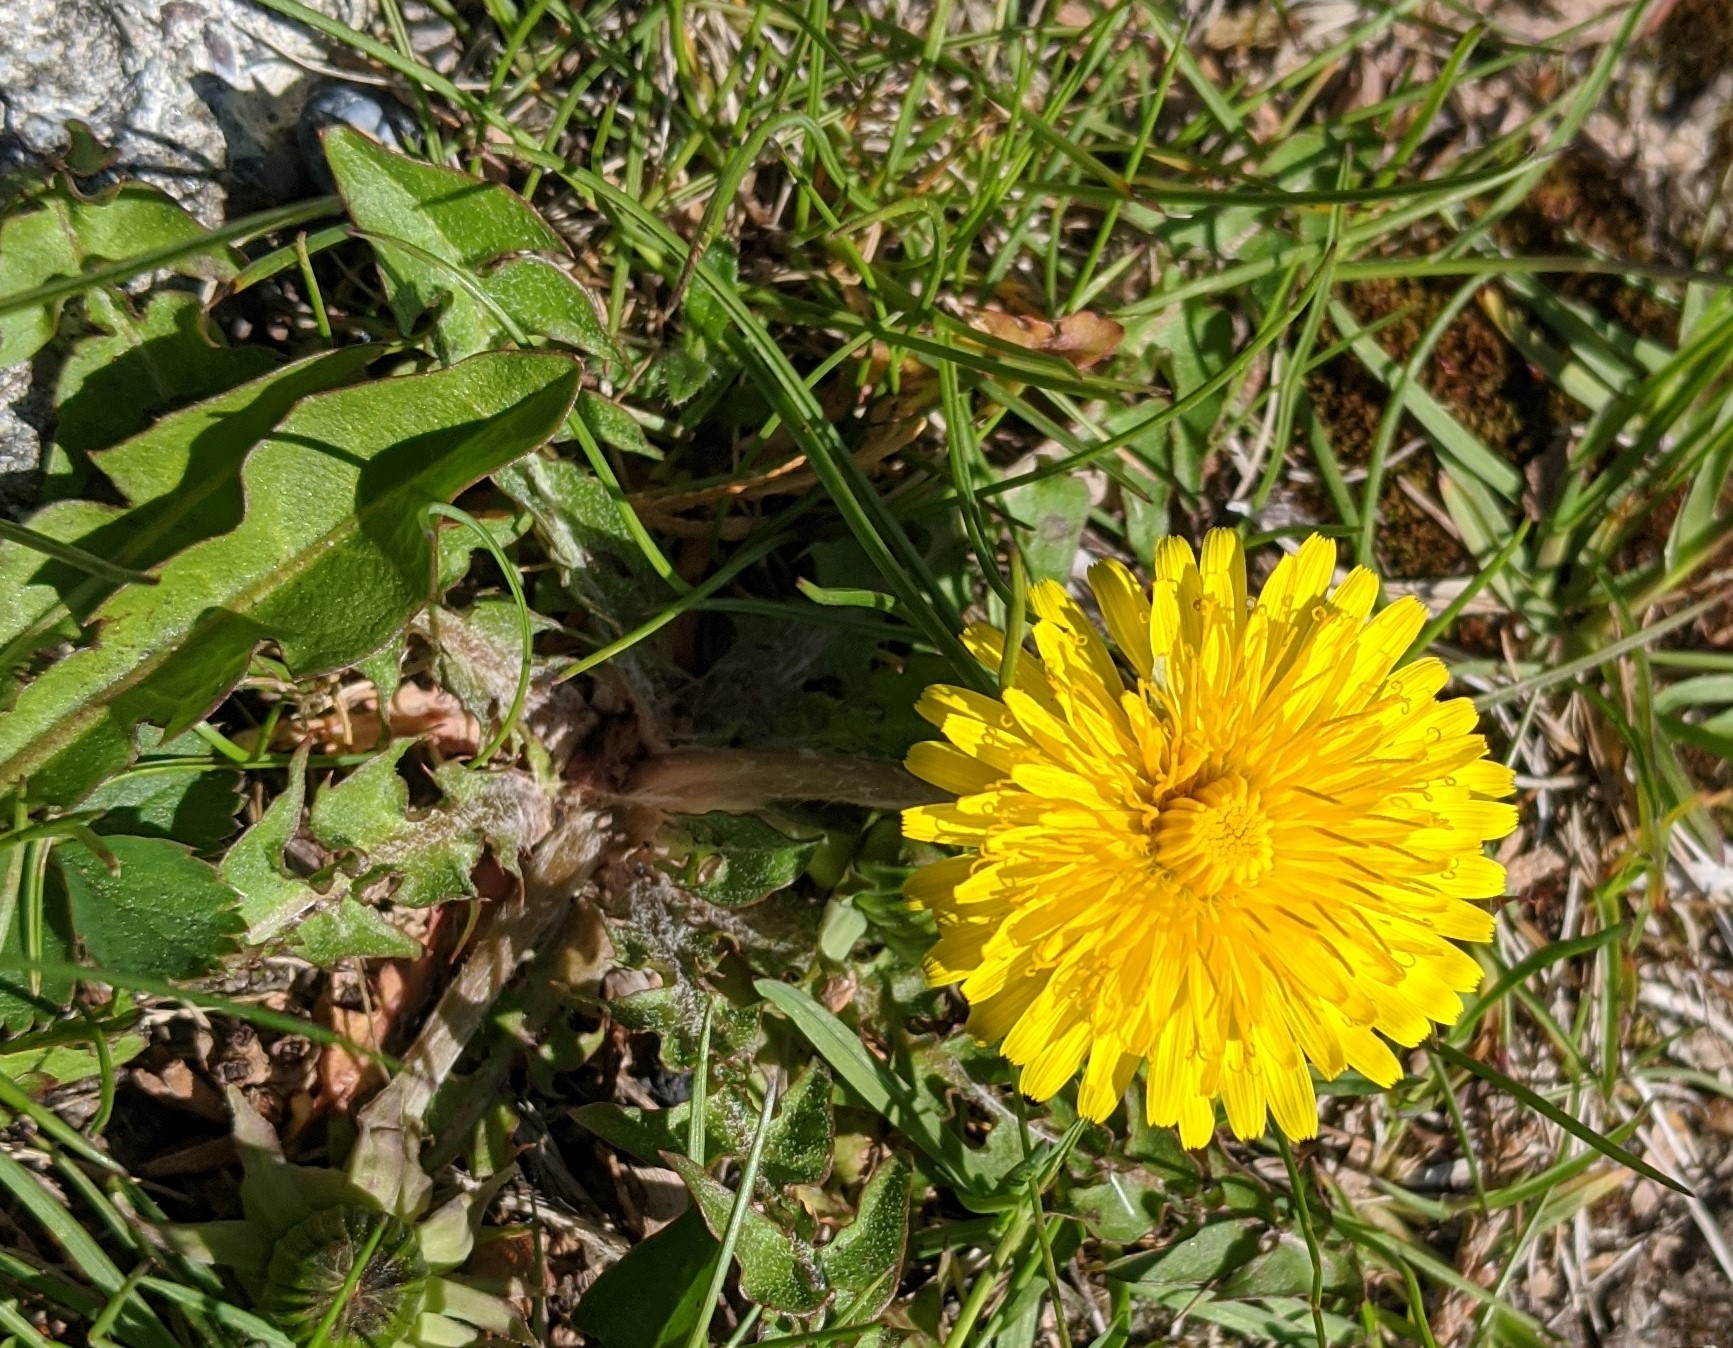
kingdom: Plantae
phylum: Tracheophyta
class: Magnoliopsida
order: Asterales
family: Asteraceae
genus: Taraxacum
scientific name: Taraxacum officinale
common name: Common dandelion
